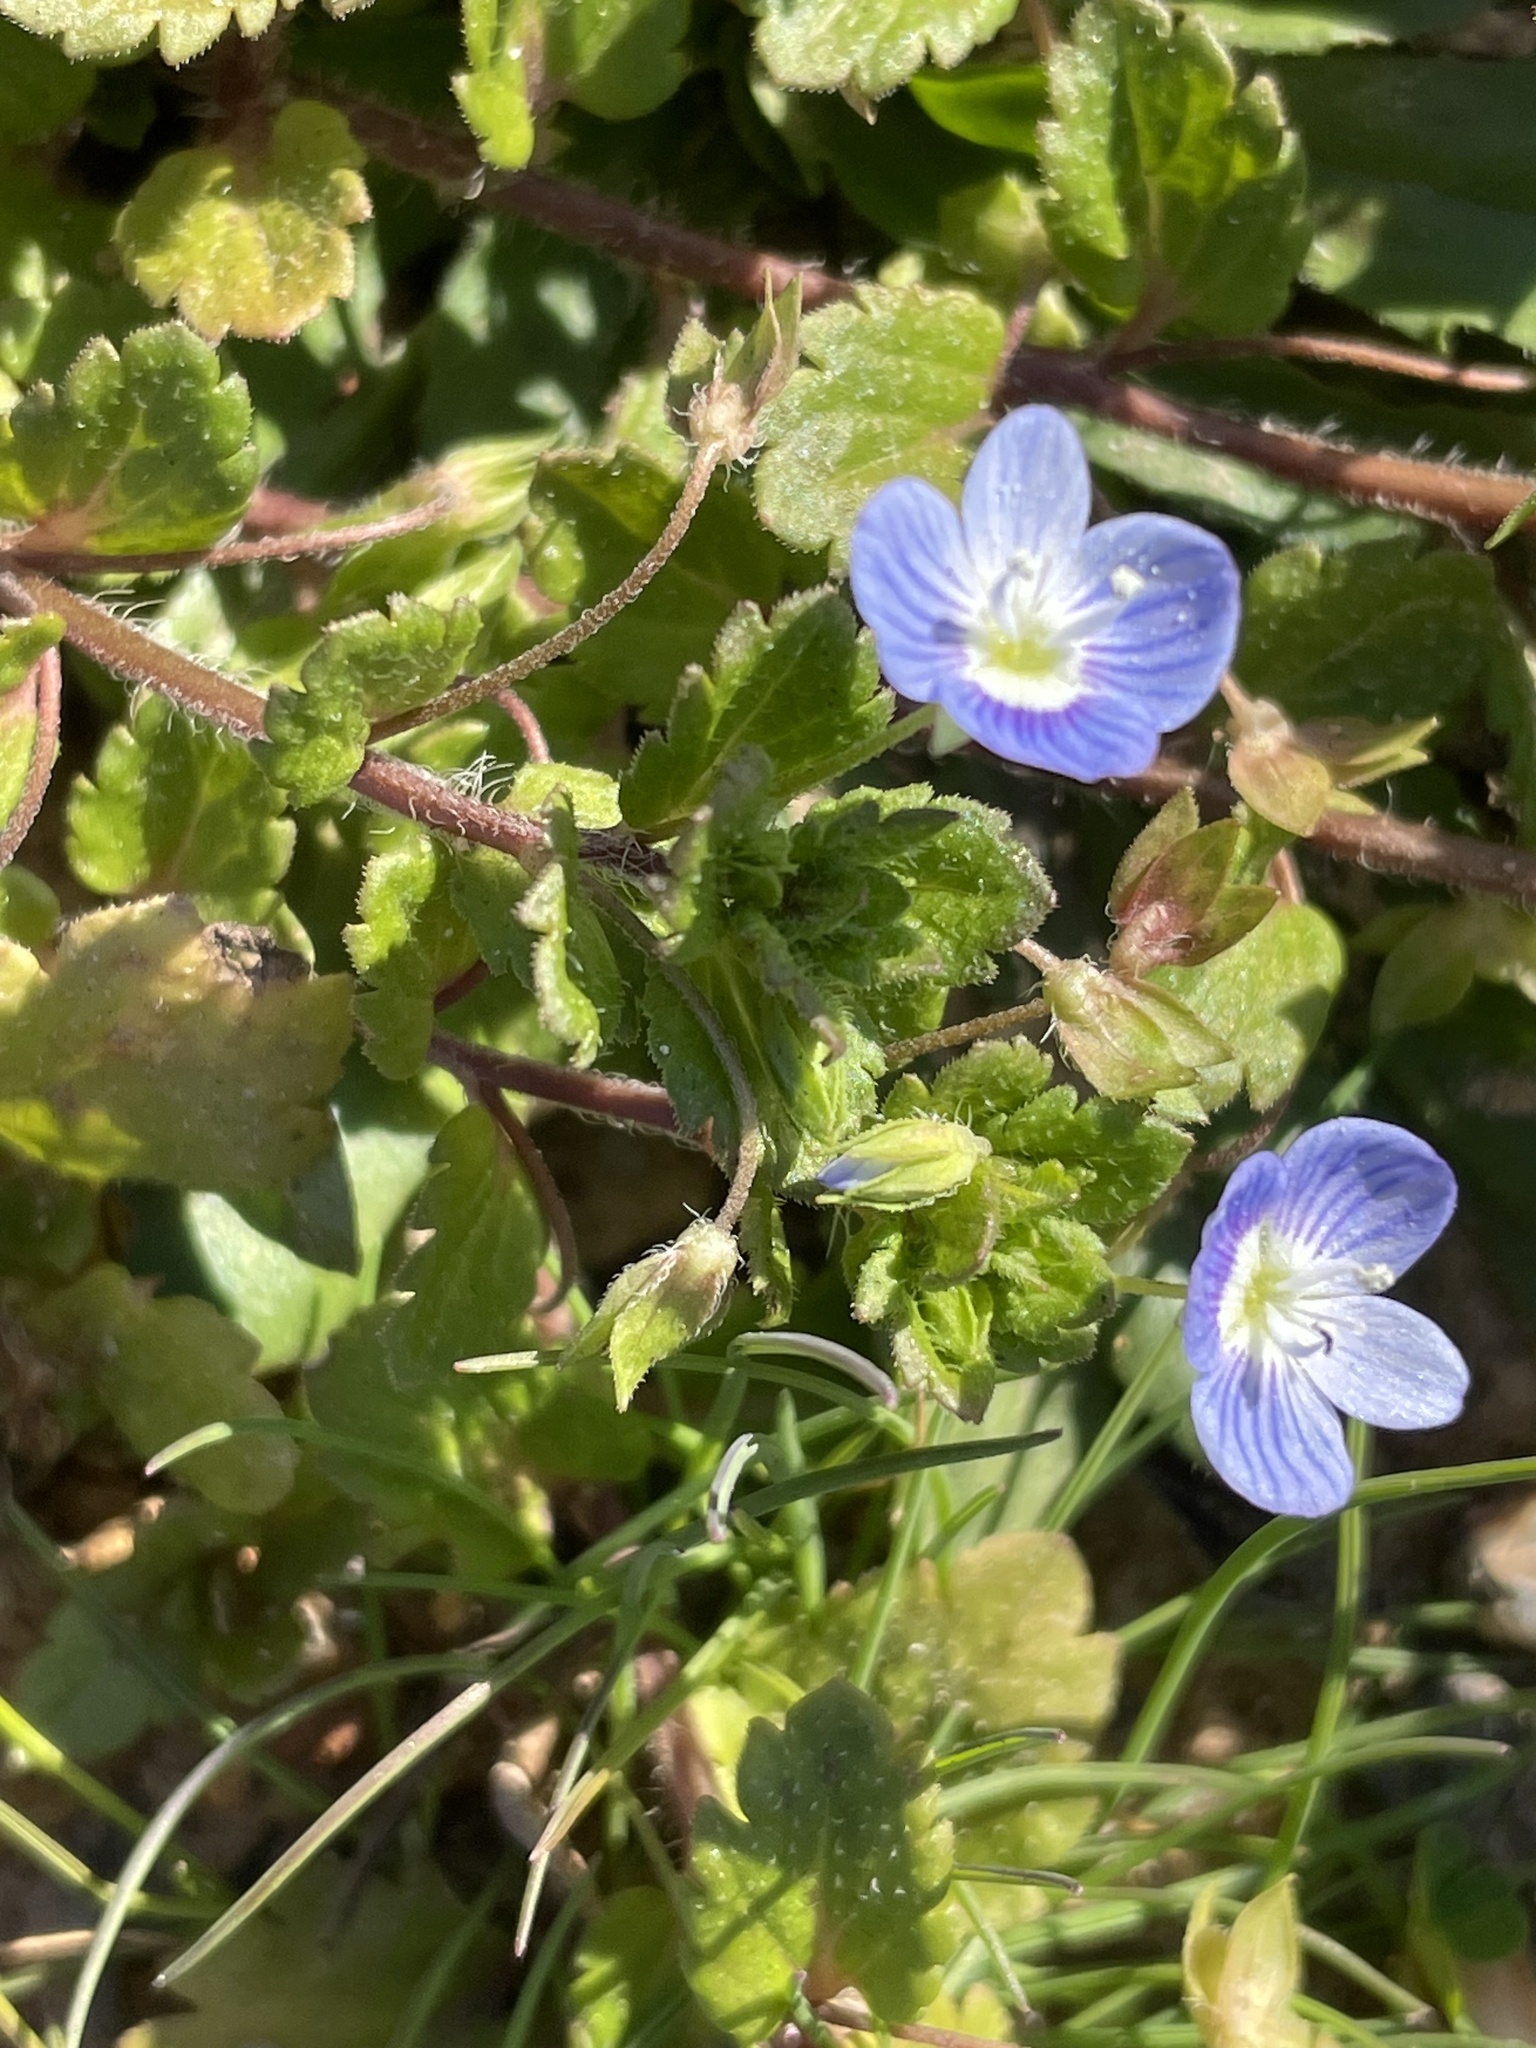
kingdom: Plantae
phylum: Tracheophyta
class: Magnoliopsida
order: Lamiales
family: Plantaginaceae
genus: Veronica
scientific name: Veronica persica
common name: Common field-speedwell
